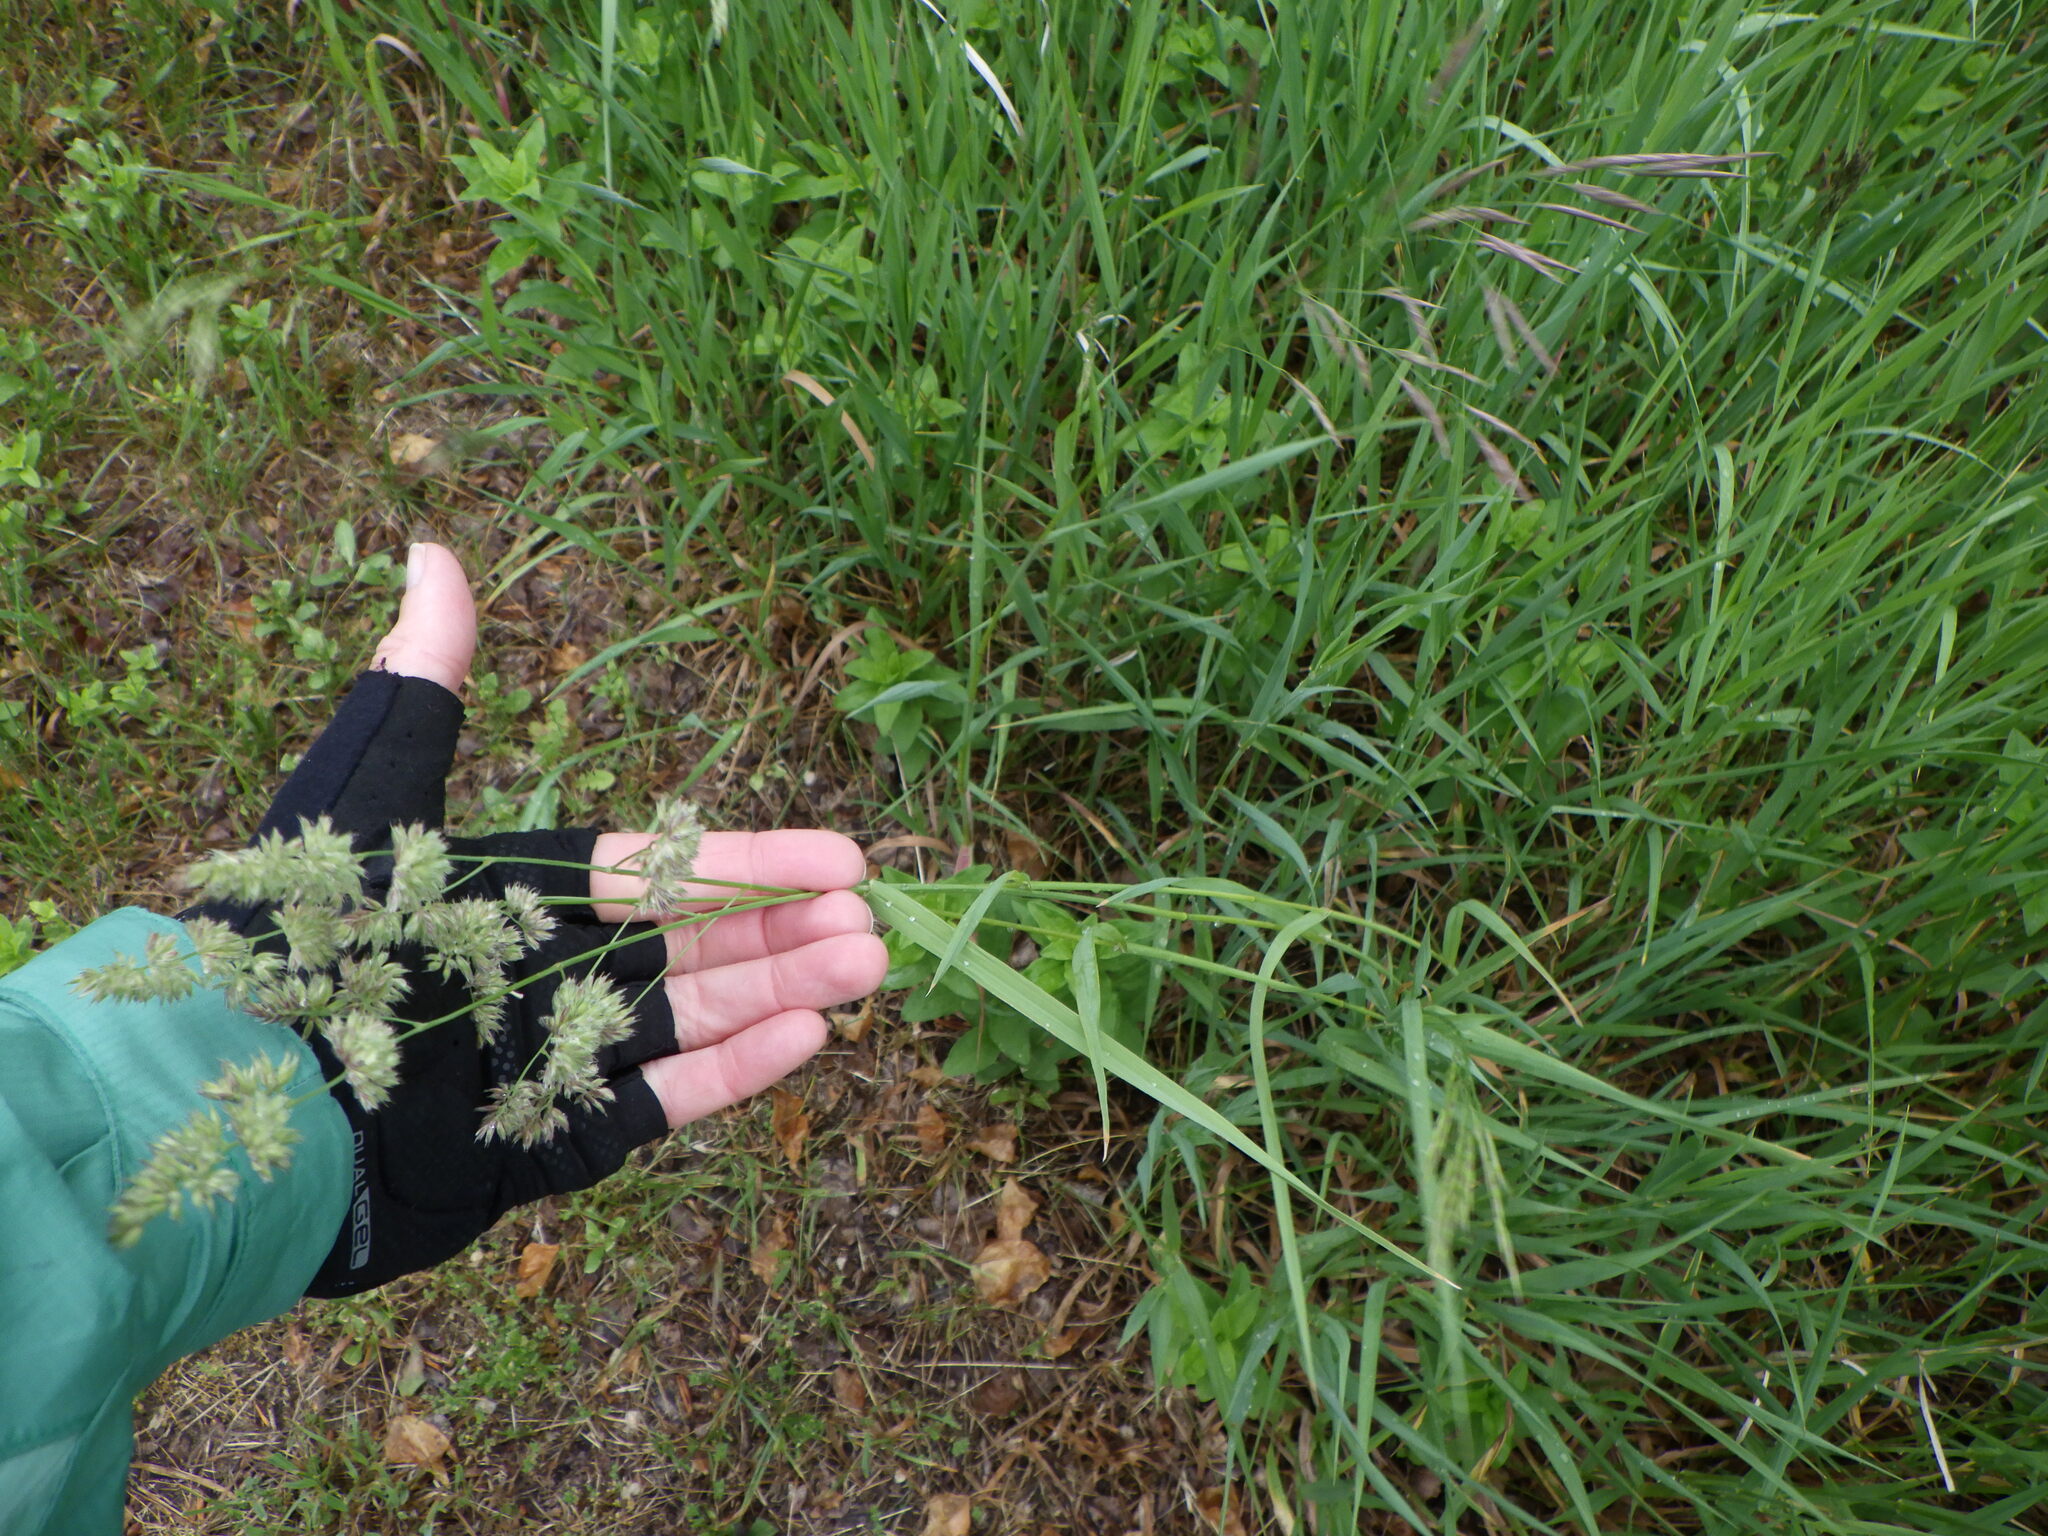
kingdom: Plantae
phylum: Tracheophyta
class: Liliopsida
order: Poales
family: Poaceae
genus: Dactylis
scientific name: Dactylis glomerata
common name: Orchardgrass
